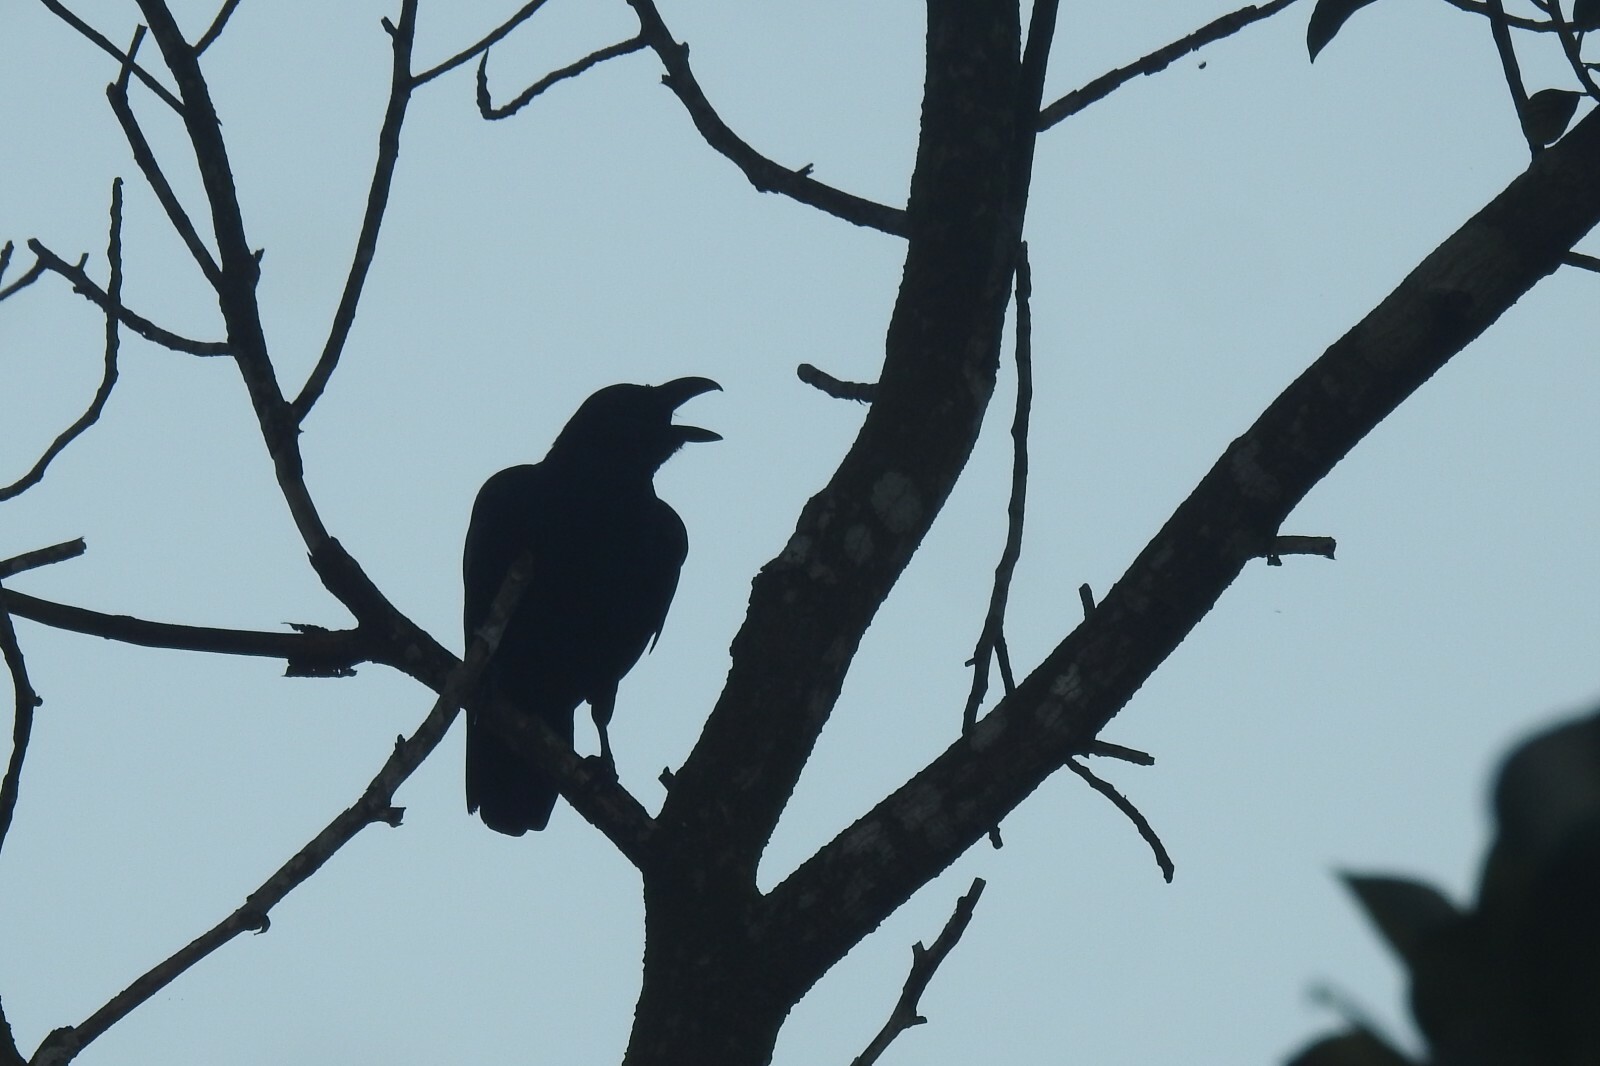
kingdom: Animalia
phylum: Chordata
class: Aves
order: Passeriformes
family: Corvidae
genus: Corvus
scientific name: Corvus macrorhynchos
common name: Large-billed crow
